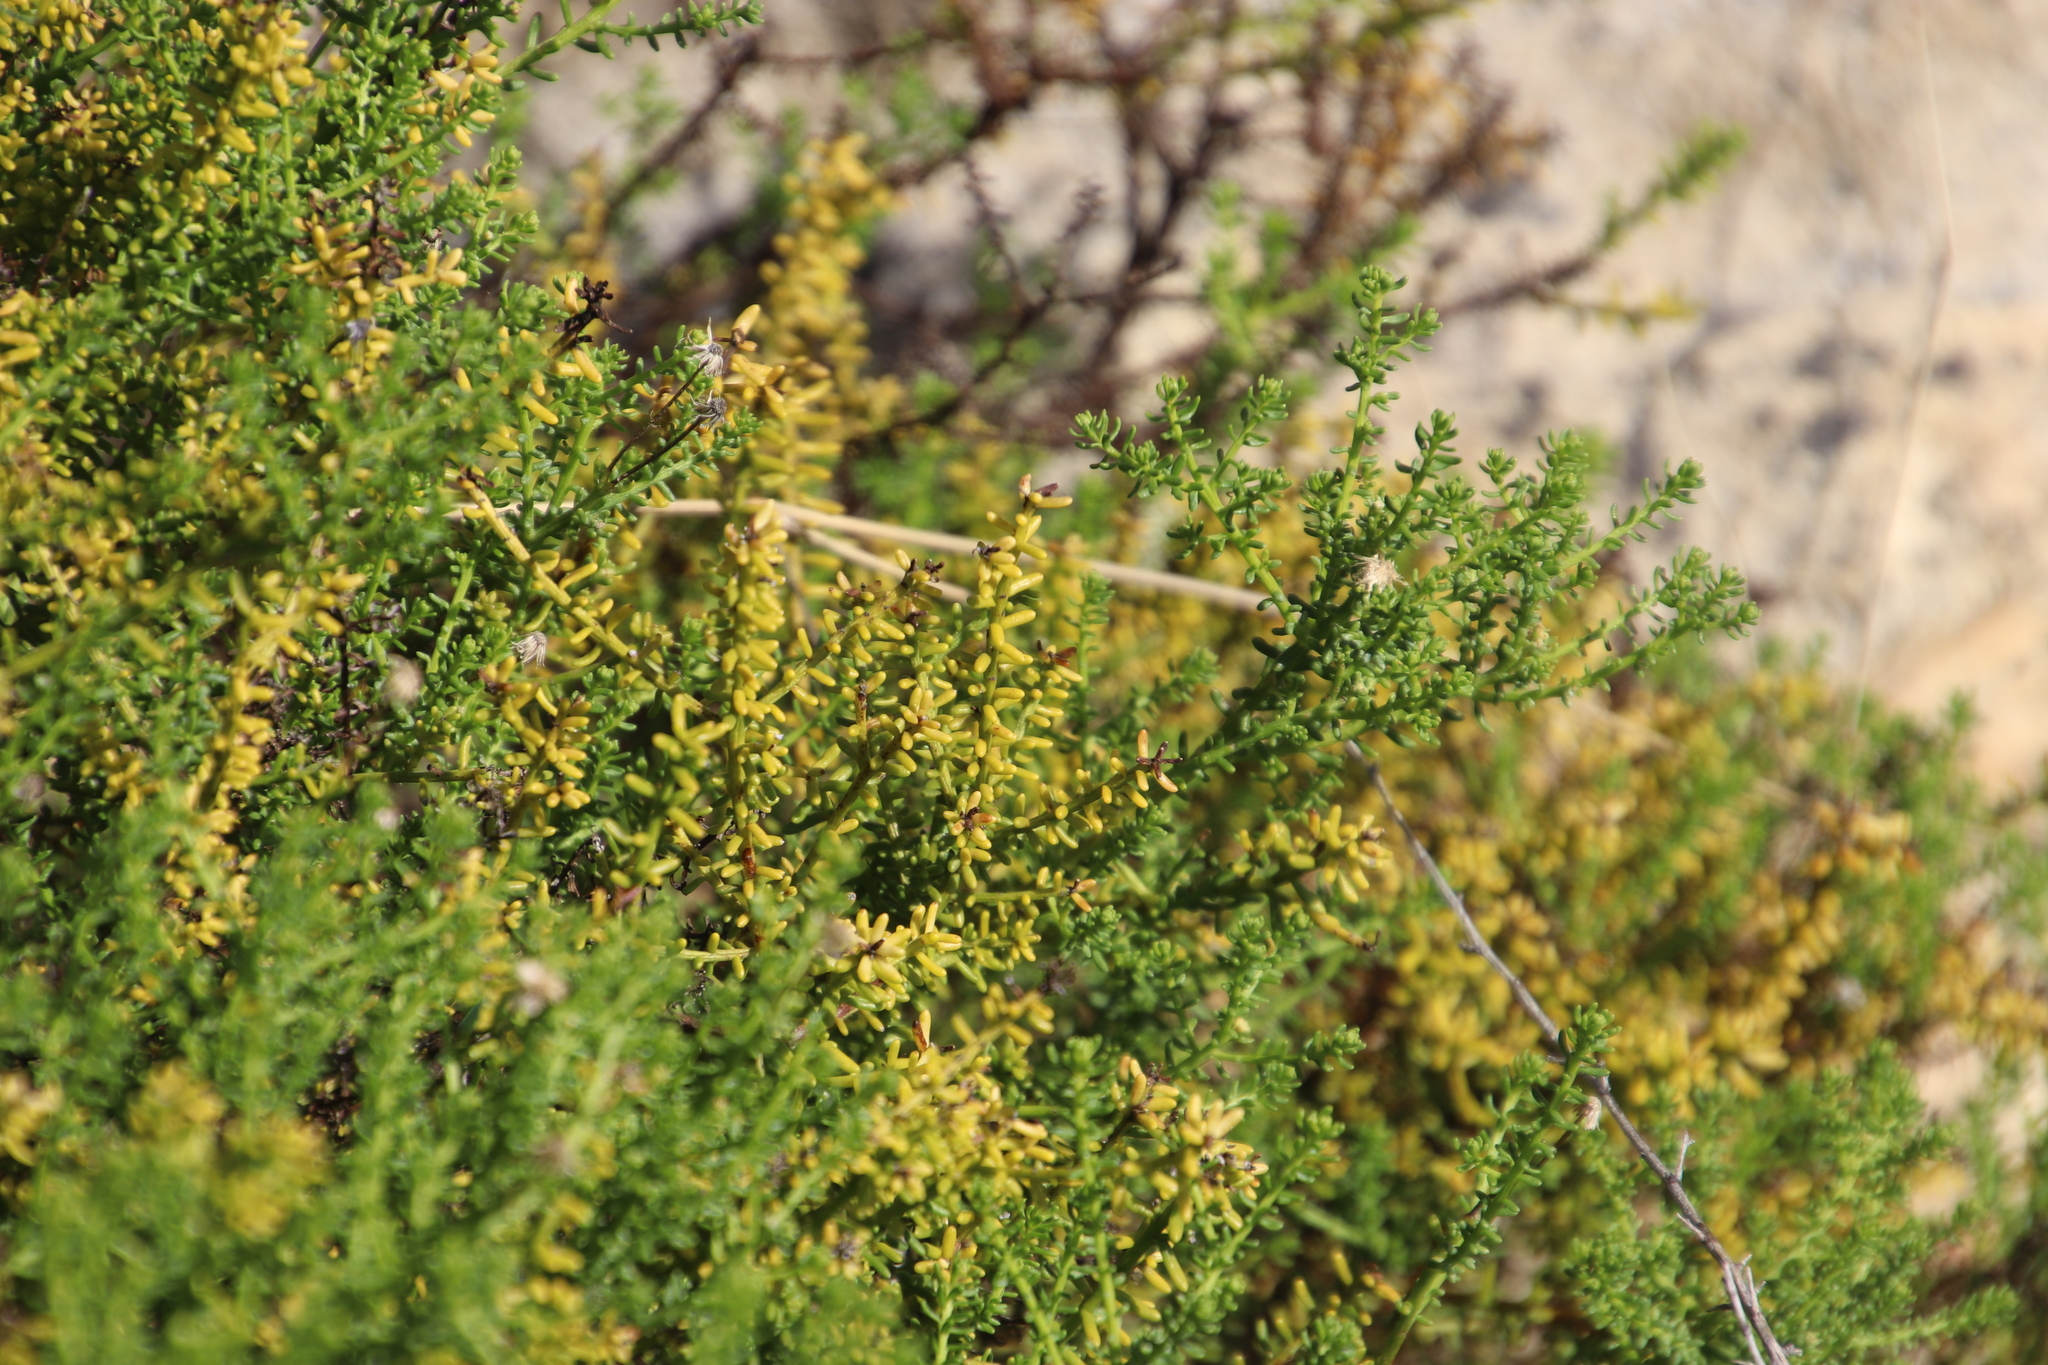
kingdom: Plantae
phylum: Tracheophyta
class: Magnoliopsida
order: Asterales
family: Asteraceae
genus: Chrysocoma
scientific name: Chrysocoma cernua
